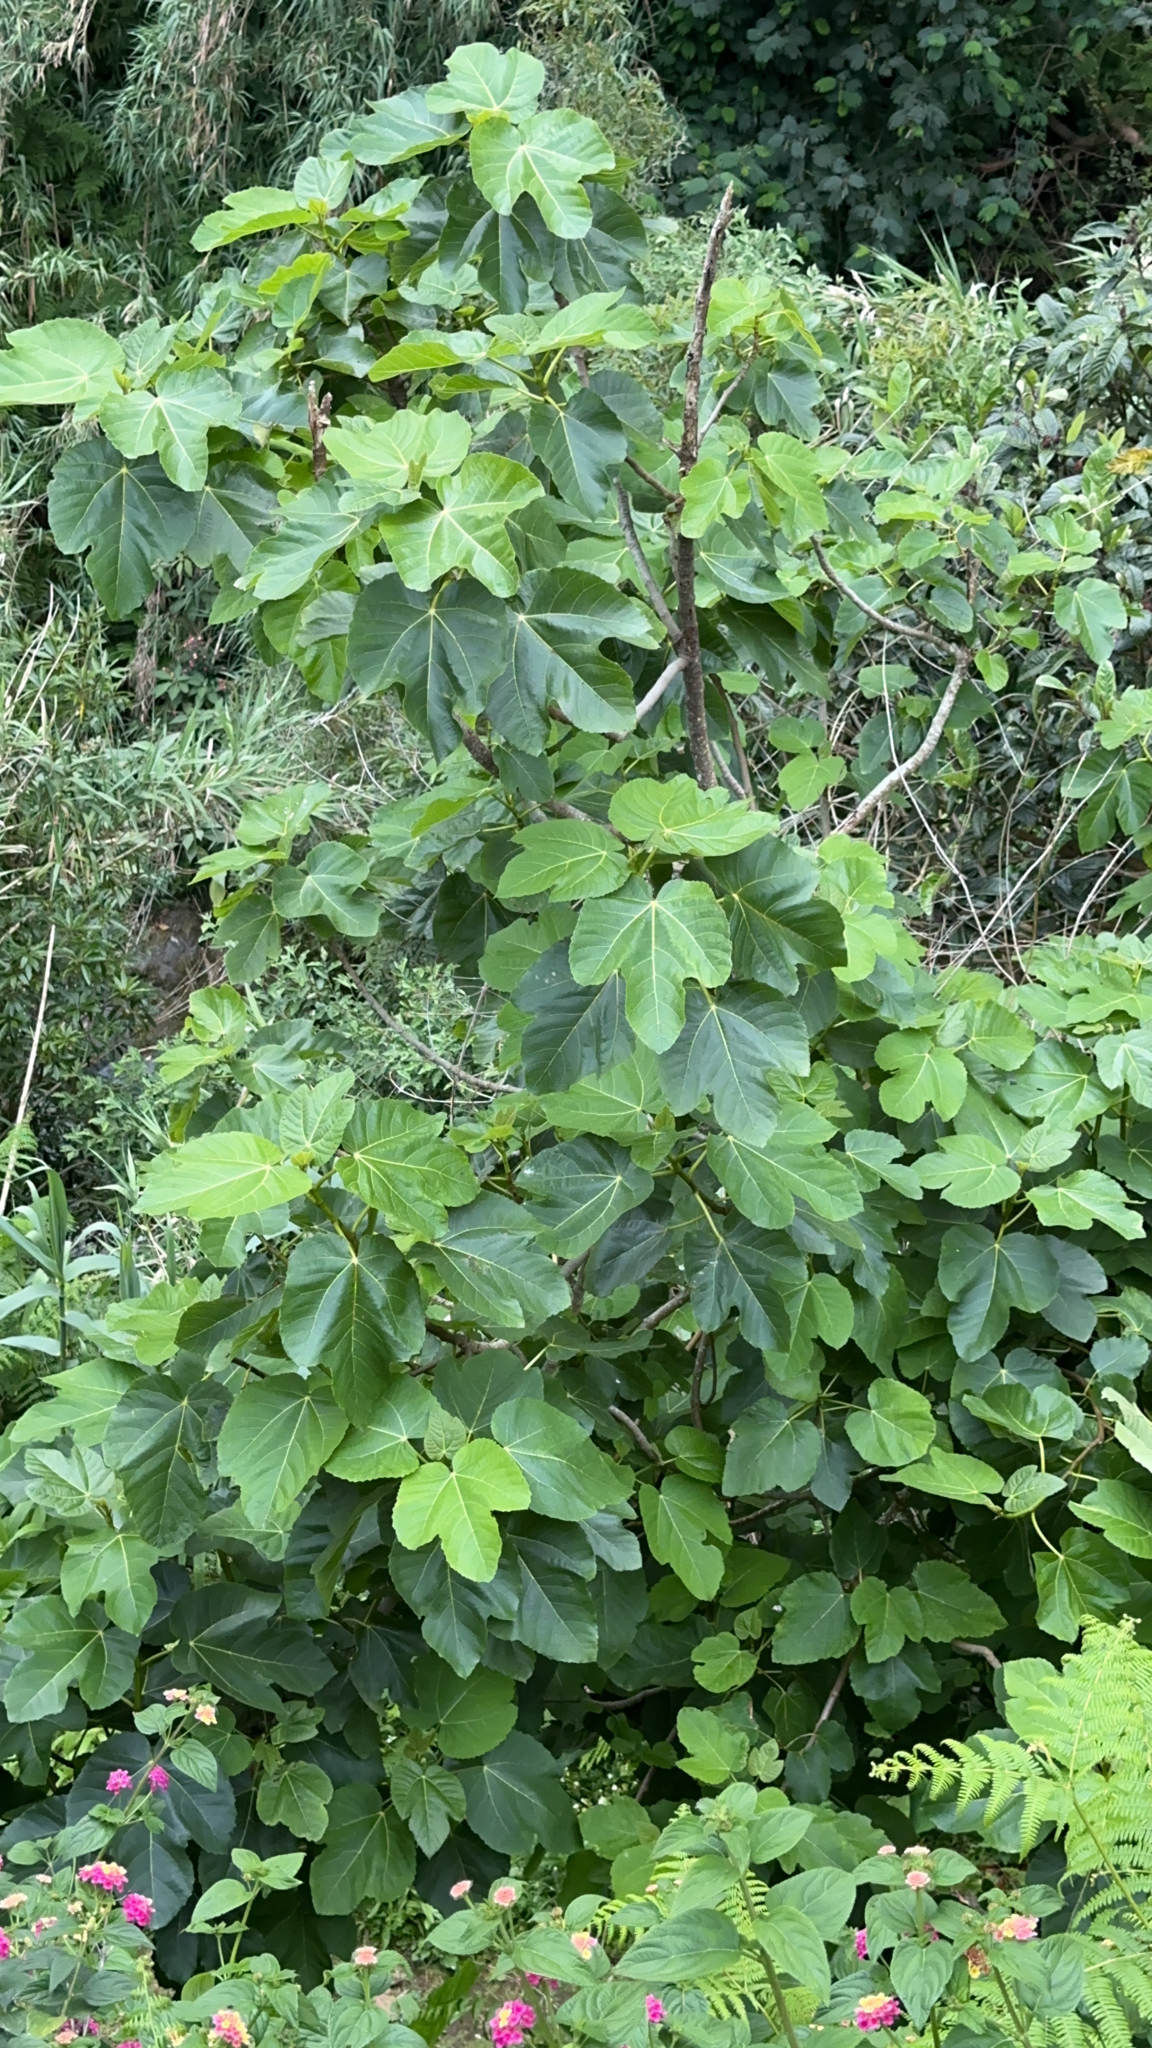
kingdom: Plantae
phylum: Tracheophyta
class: Magnoliopsida
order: Rosales
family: Moraceae
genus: Ficus
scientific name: Ficus carica
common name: Fig
